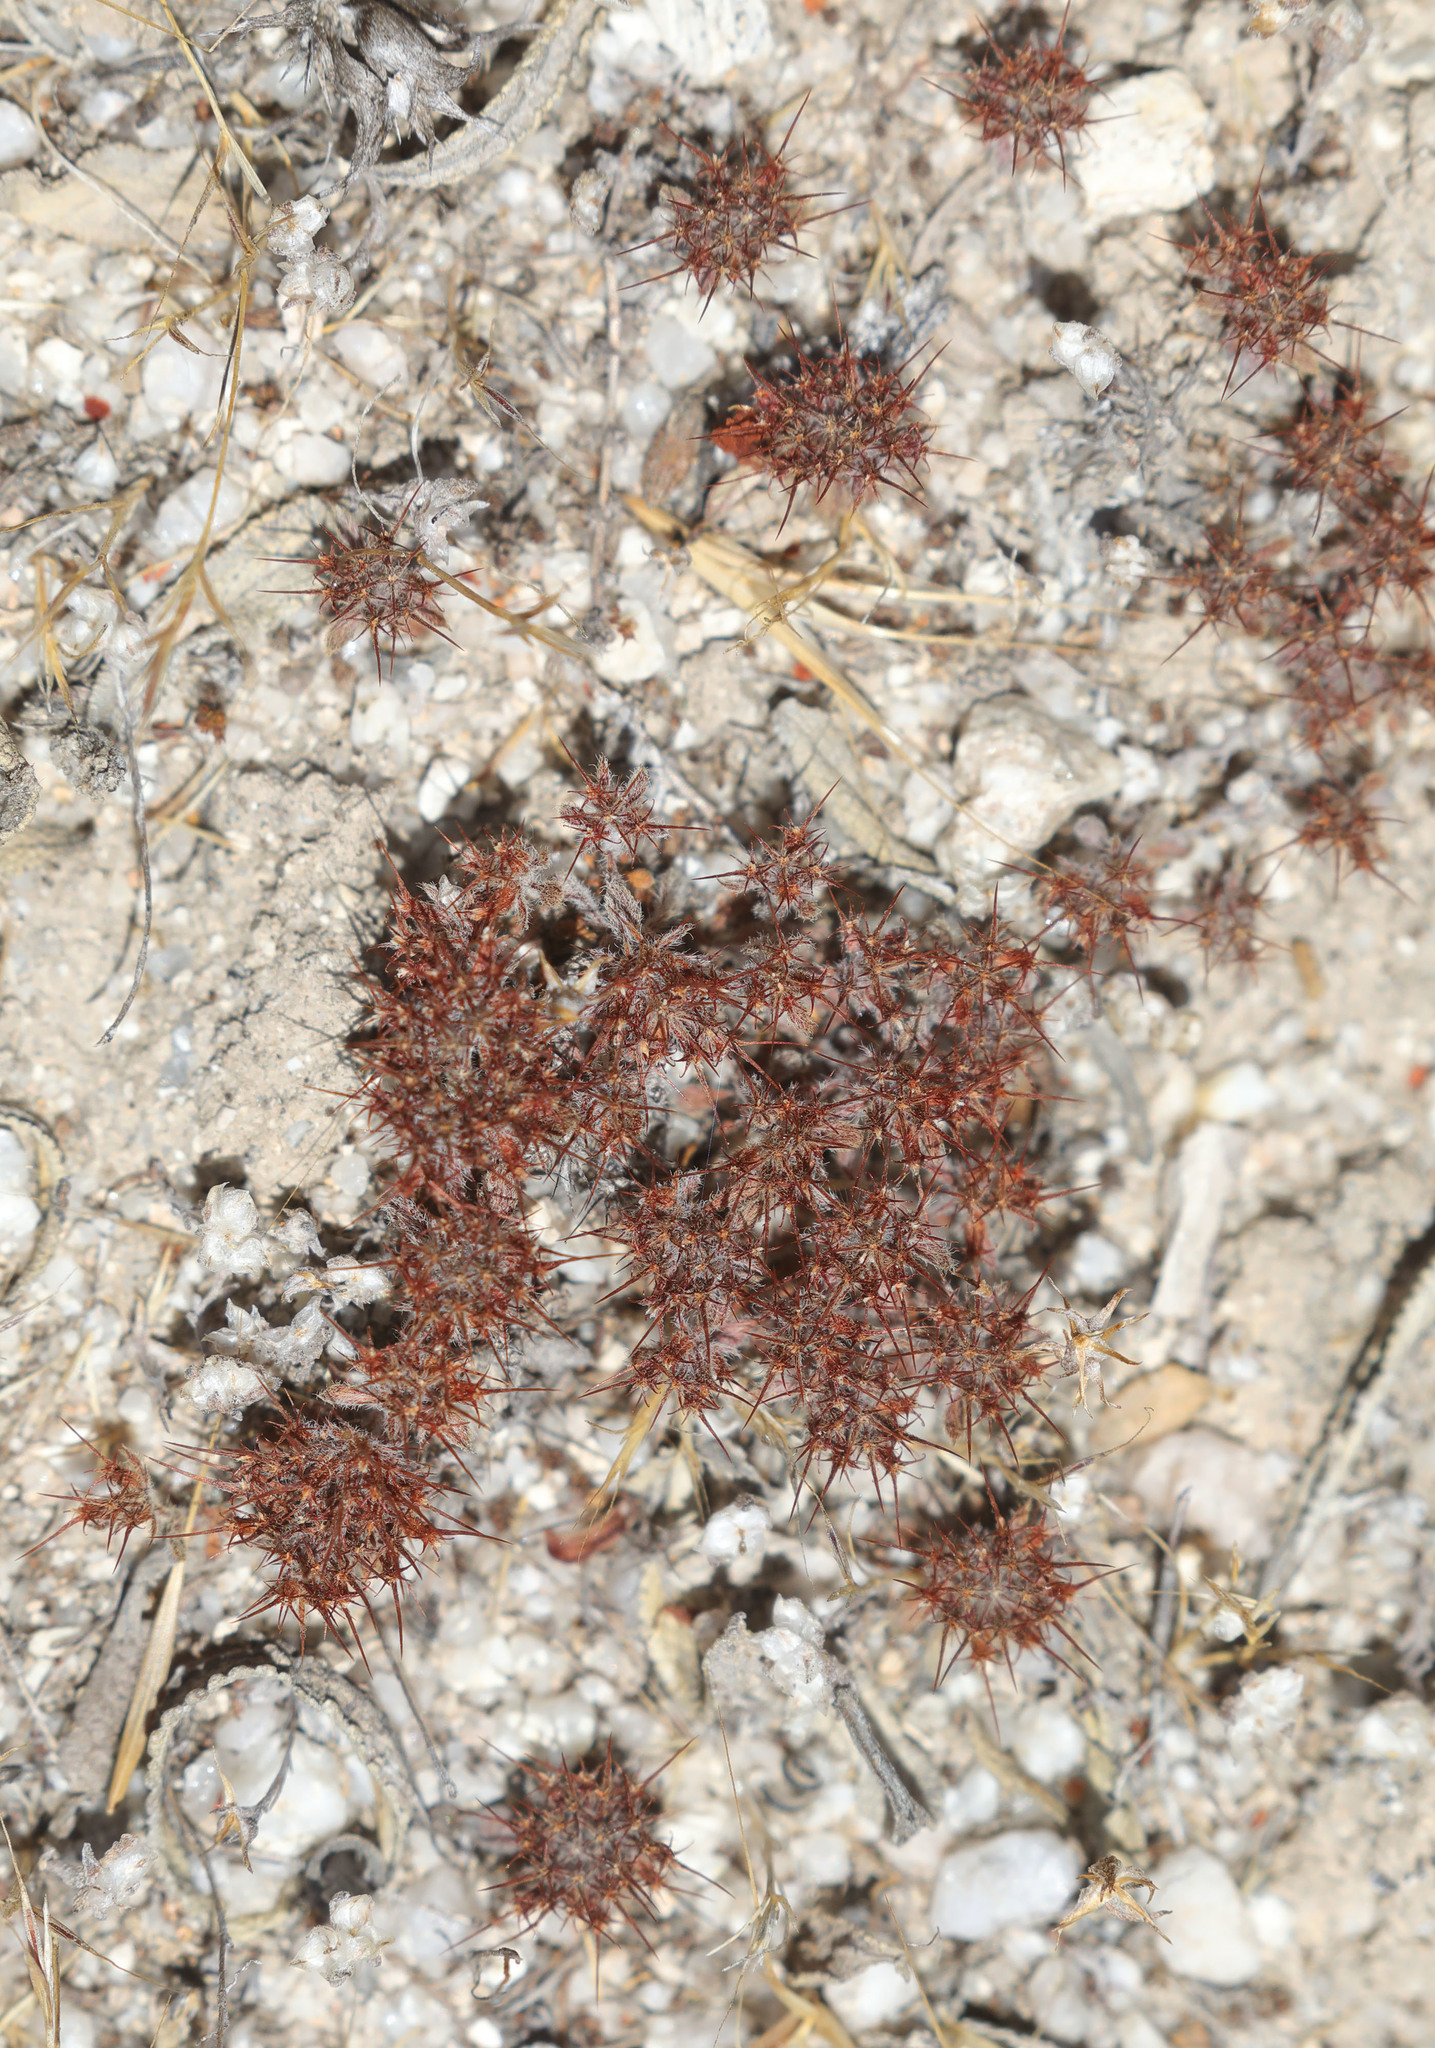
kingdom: Plantae
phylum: Tracheophyta
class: Magnoliopsida
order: Caryophyllales
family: Polygonaceae
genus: Chorizanthe
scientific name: Chorizanthe uniaristata
